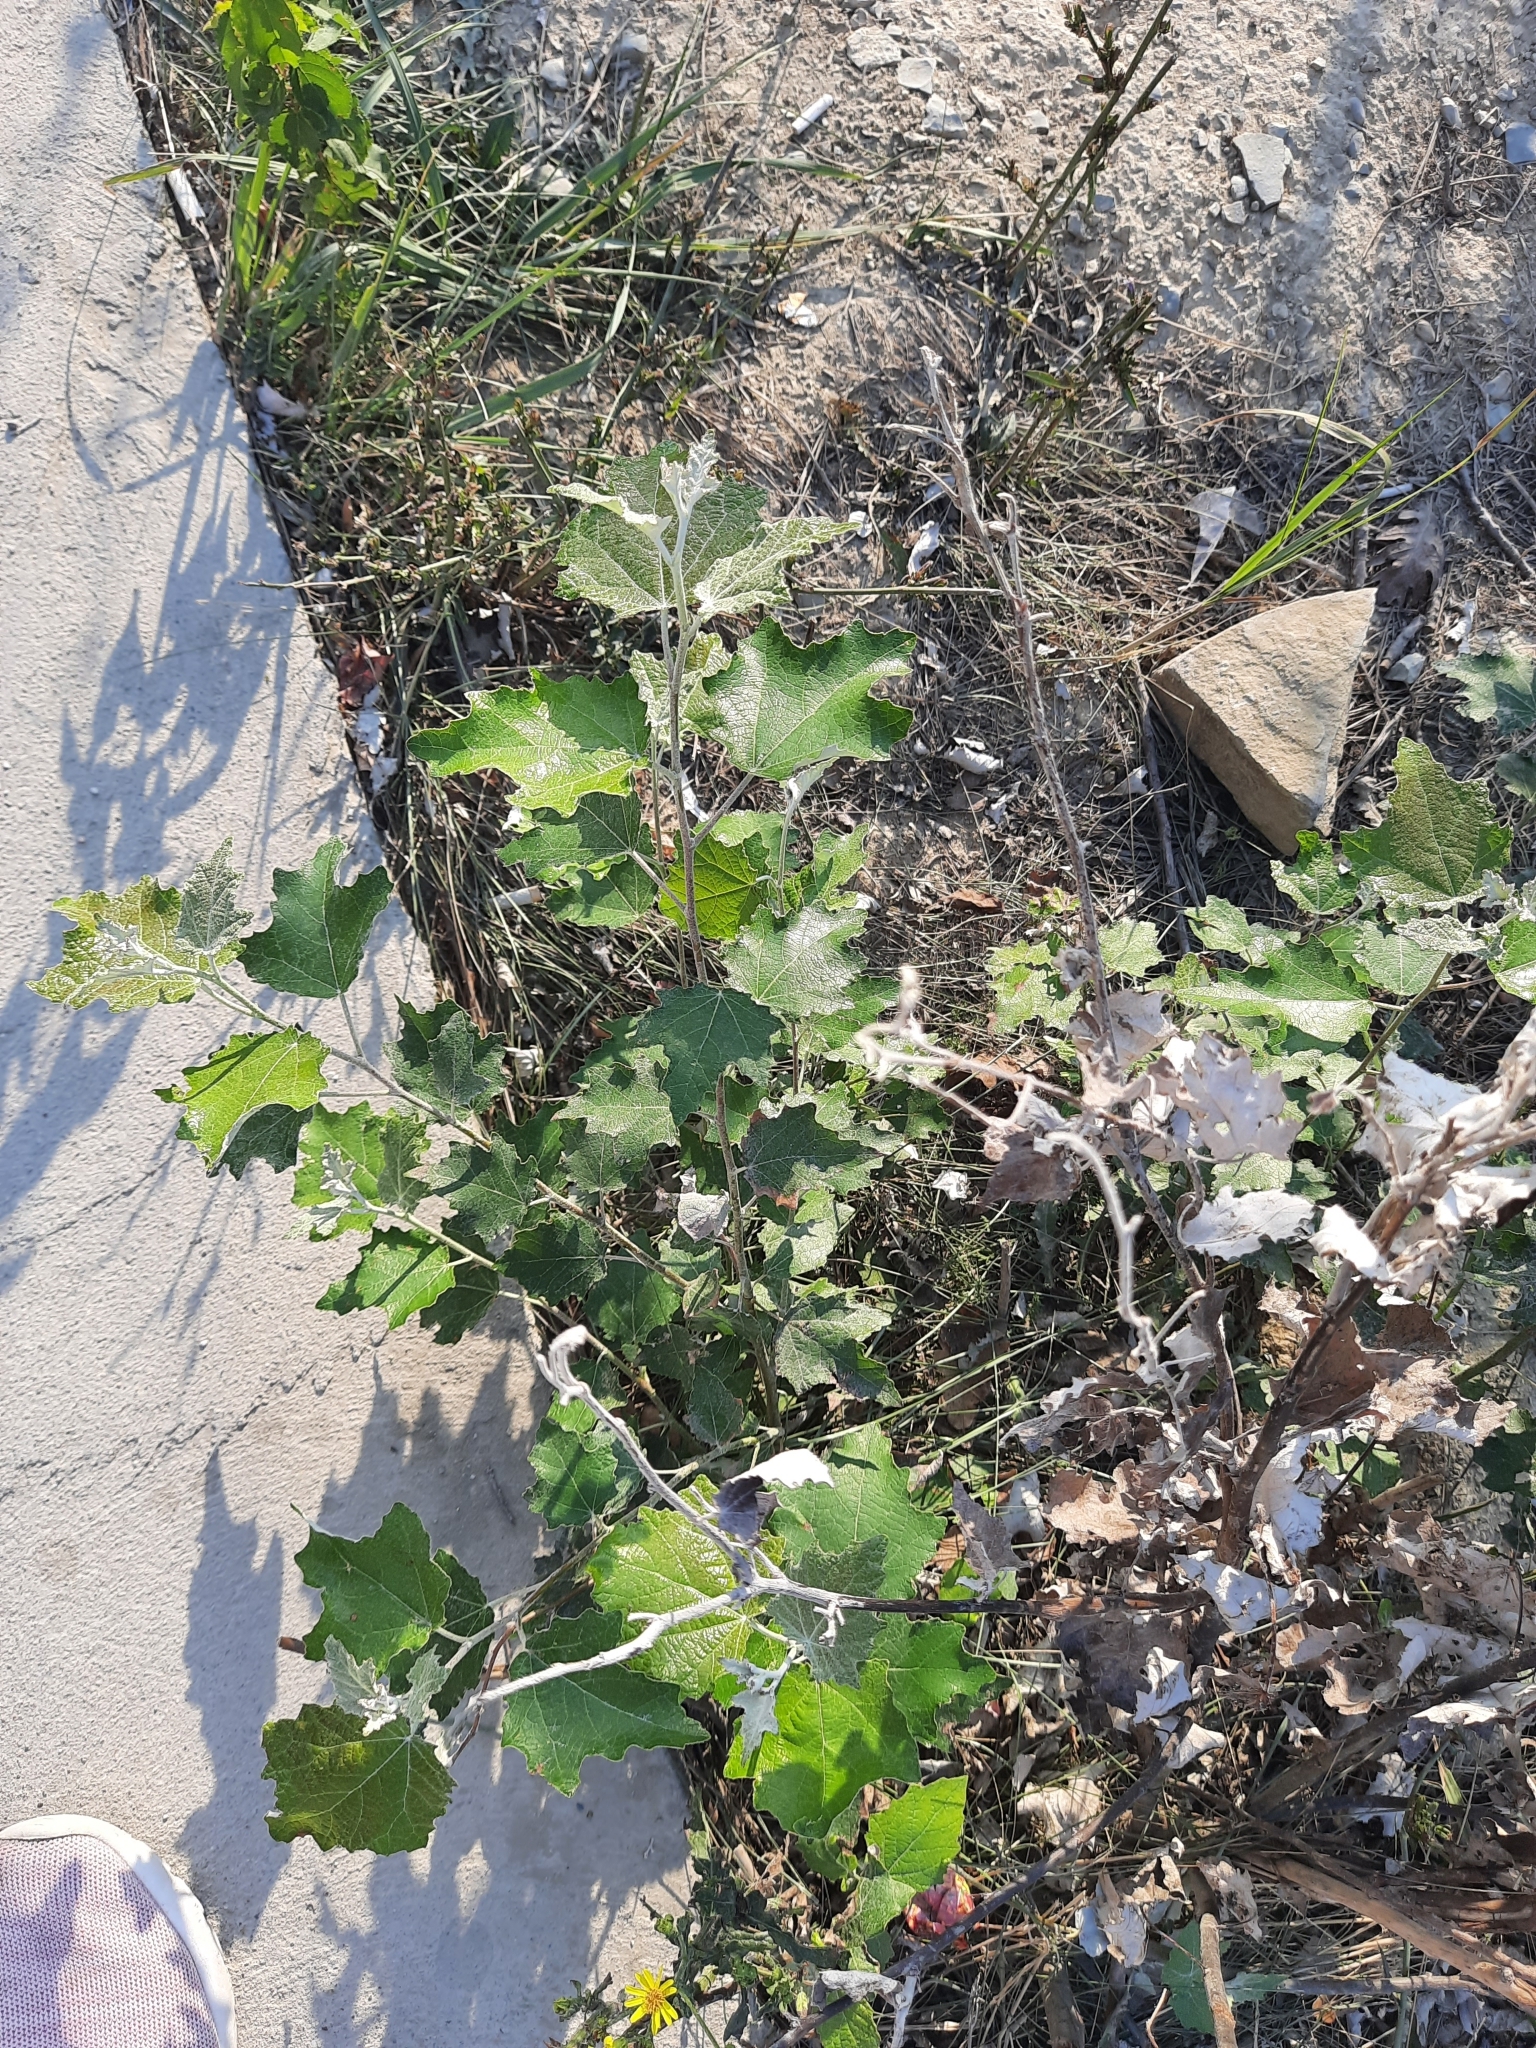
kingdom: Plantae
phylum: Tracheophyta
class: Magnoliopsida
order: Malpighiales
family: Salicaceae
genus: Populus
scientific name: Populus alba
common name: White poplar
